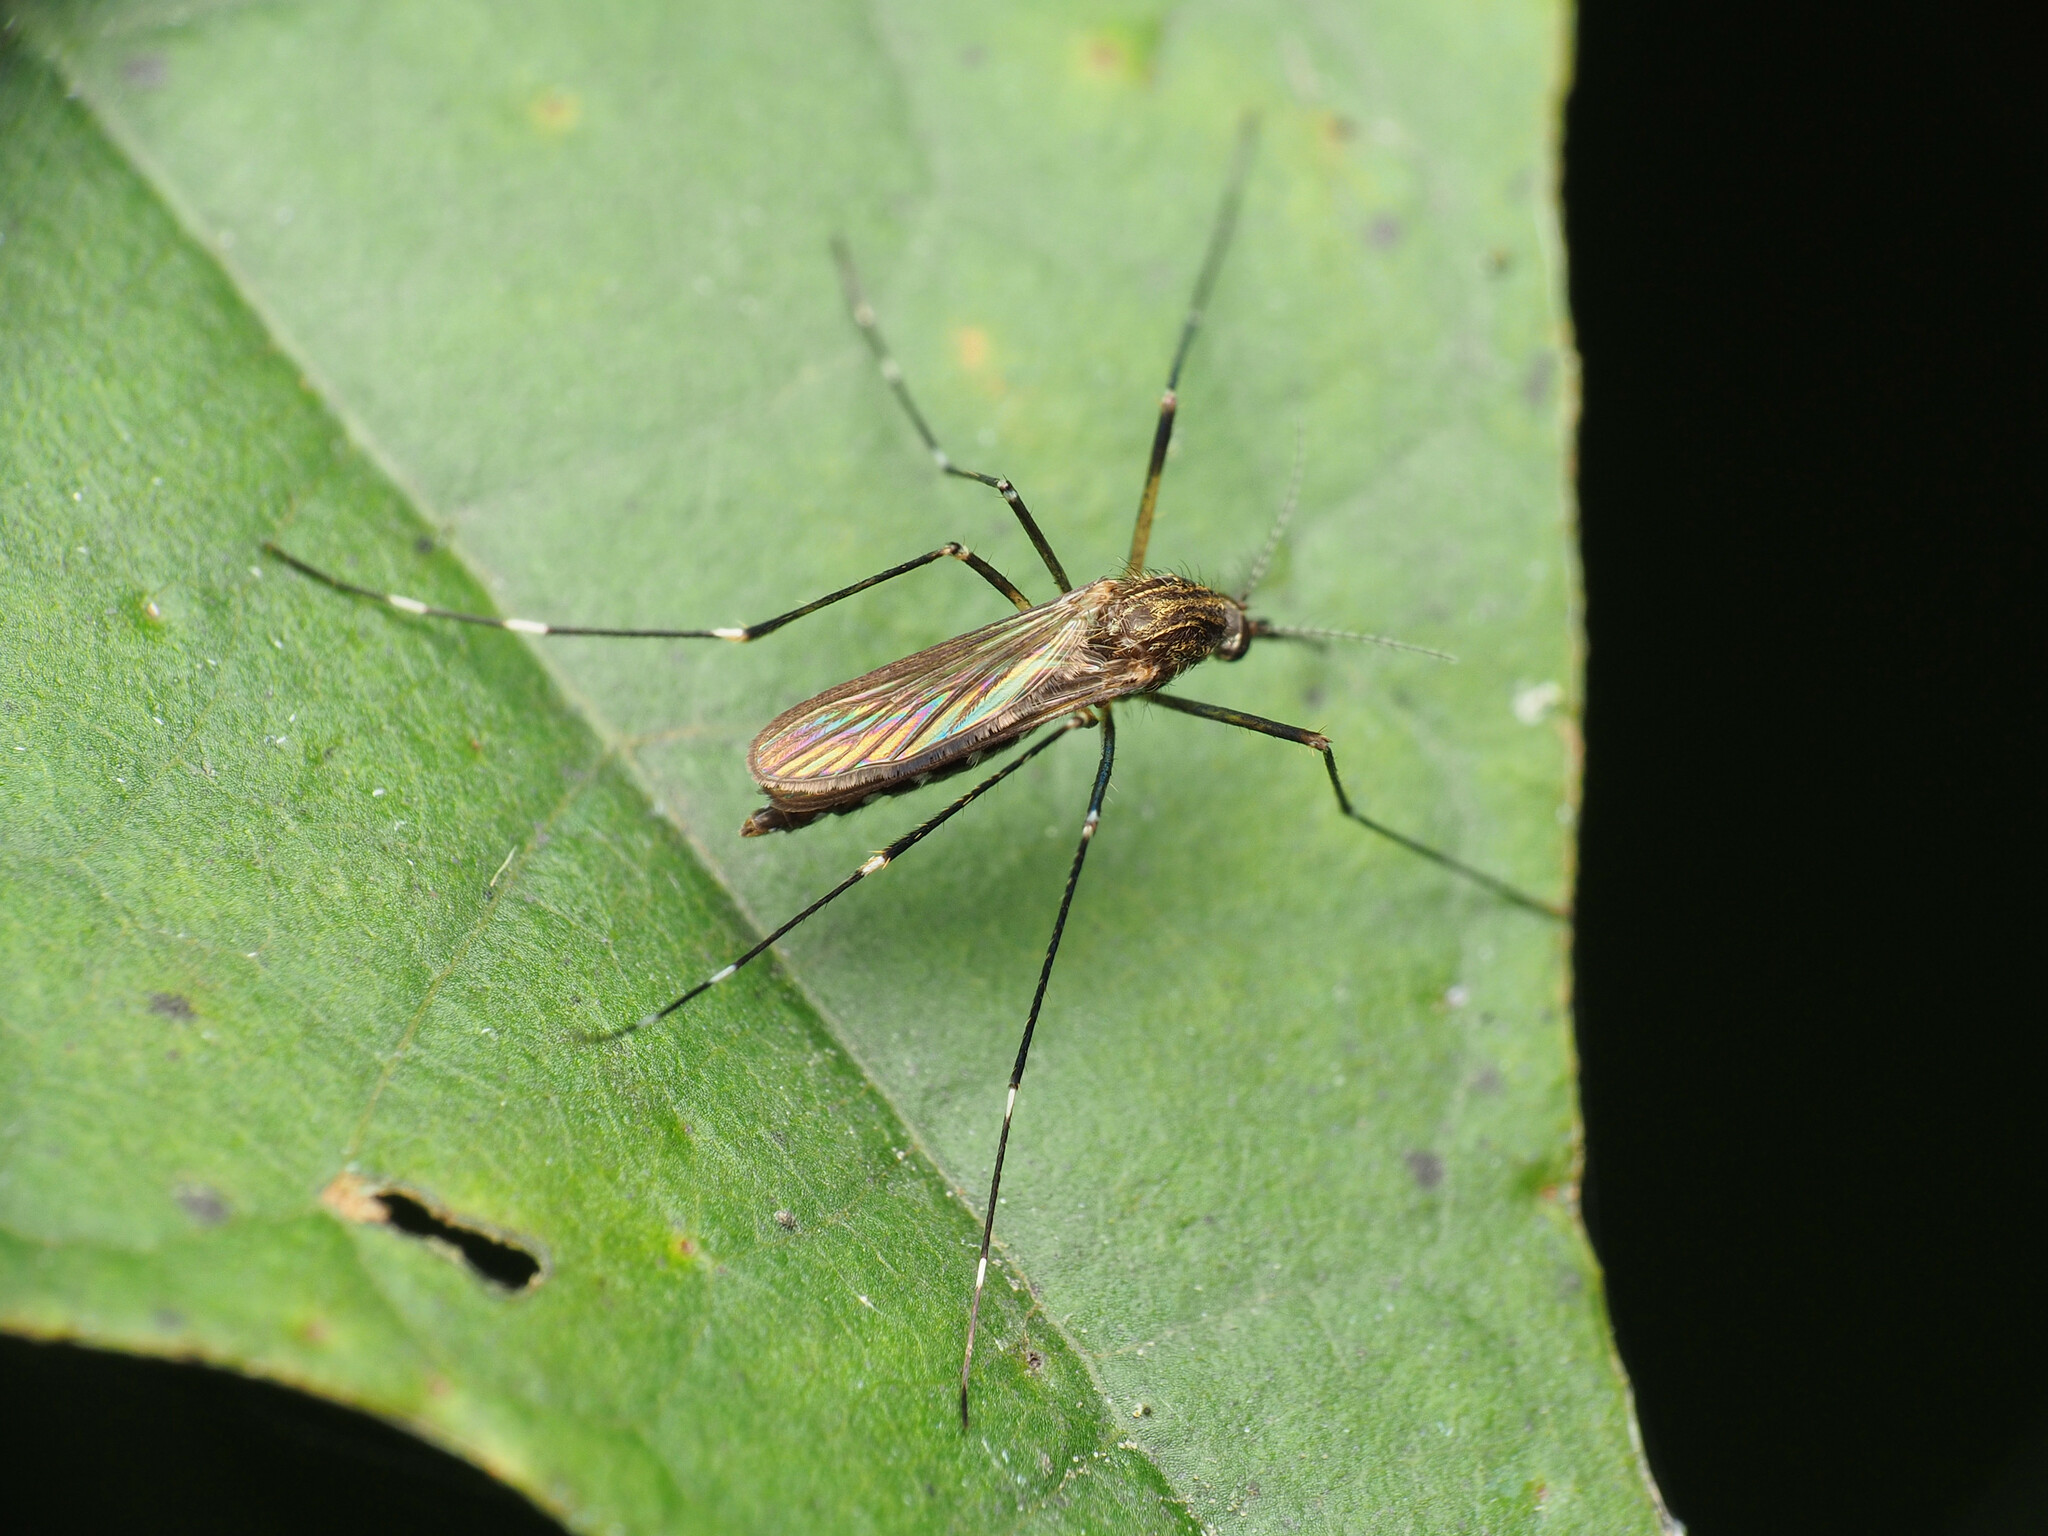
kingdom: Animalia
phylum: Arthropoda
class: Insecta
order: Diptera
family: Culicidae
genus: Aedes
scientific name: Aedes japonicus
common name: Asian bush mosquito
